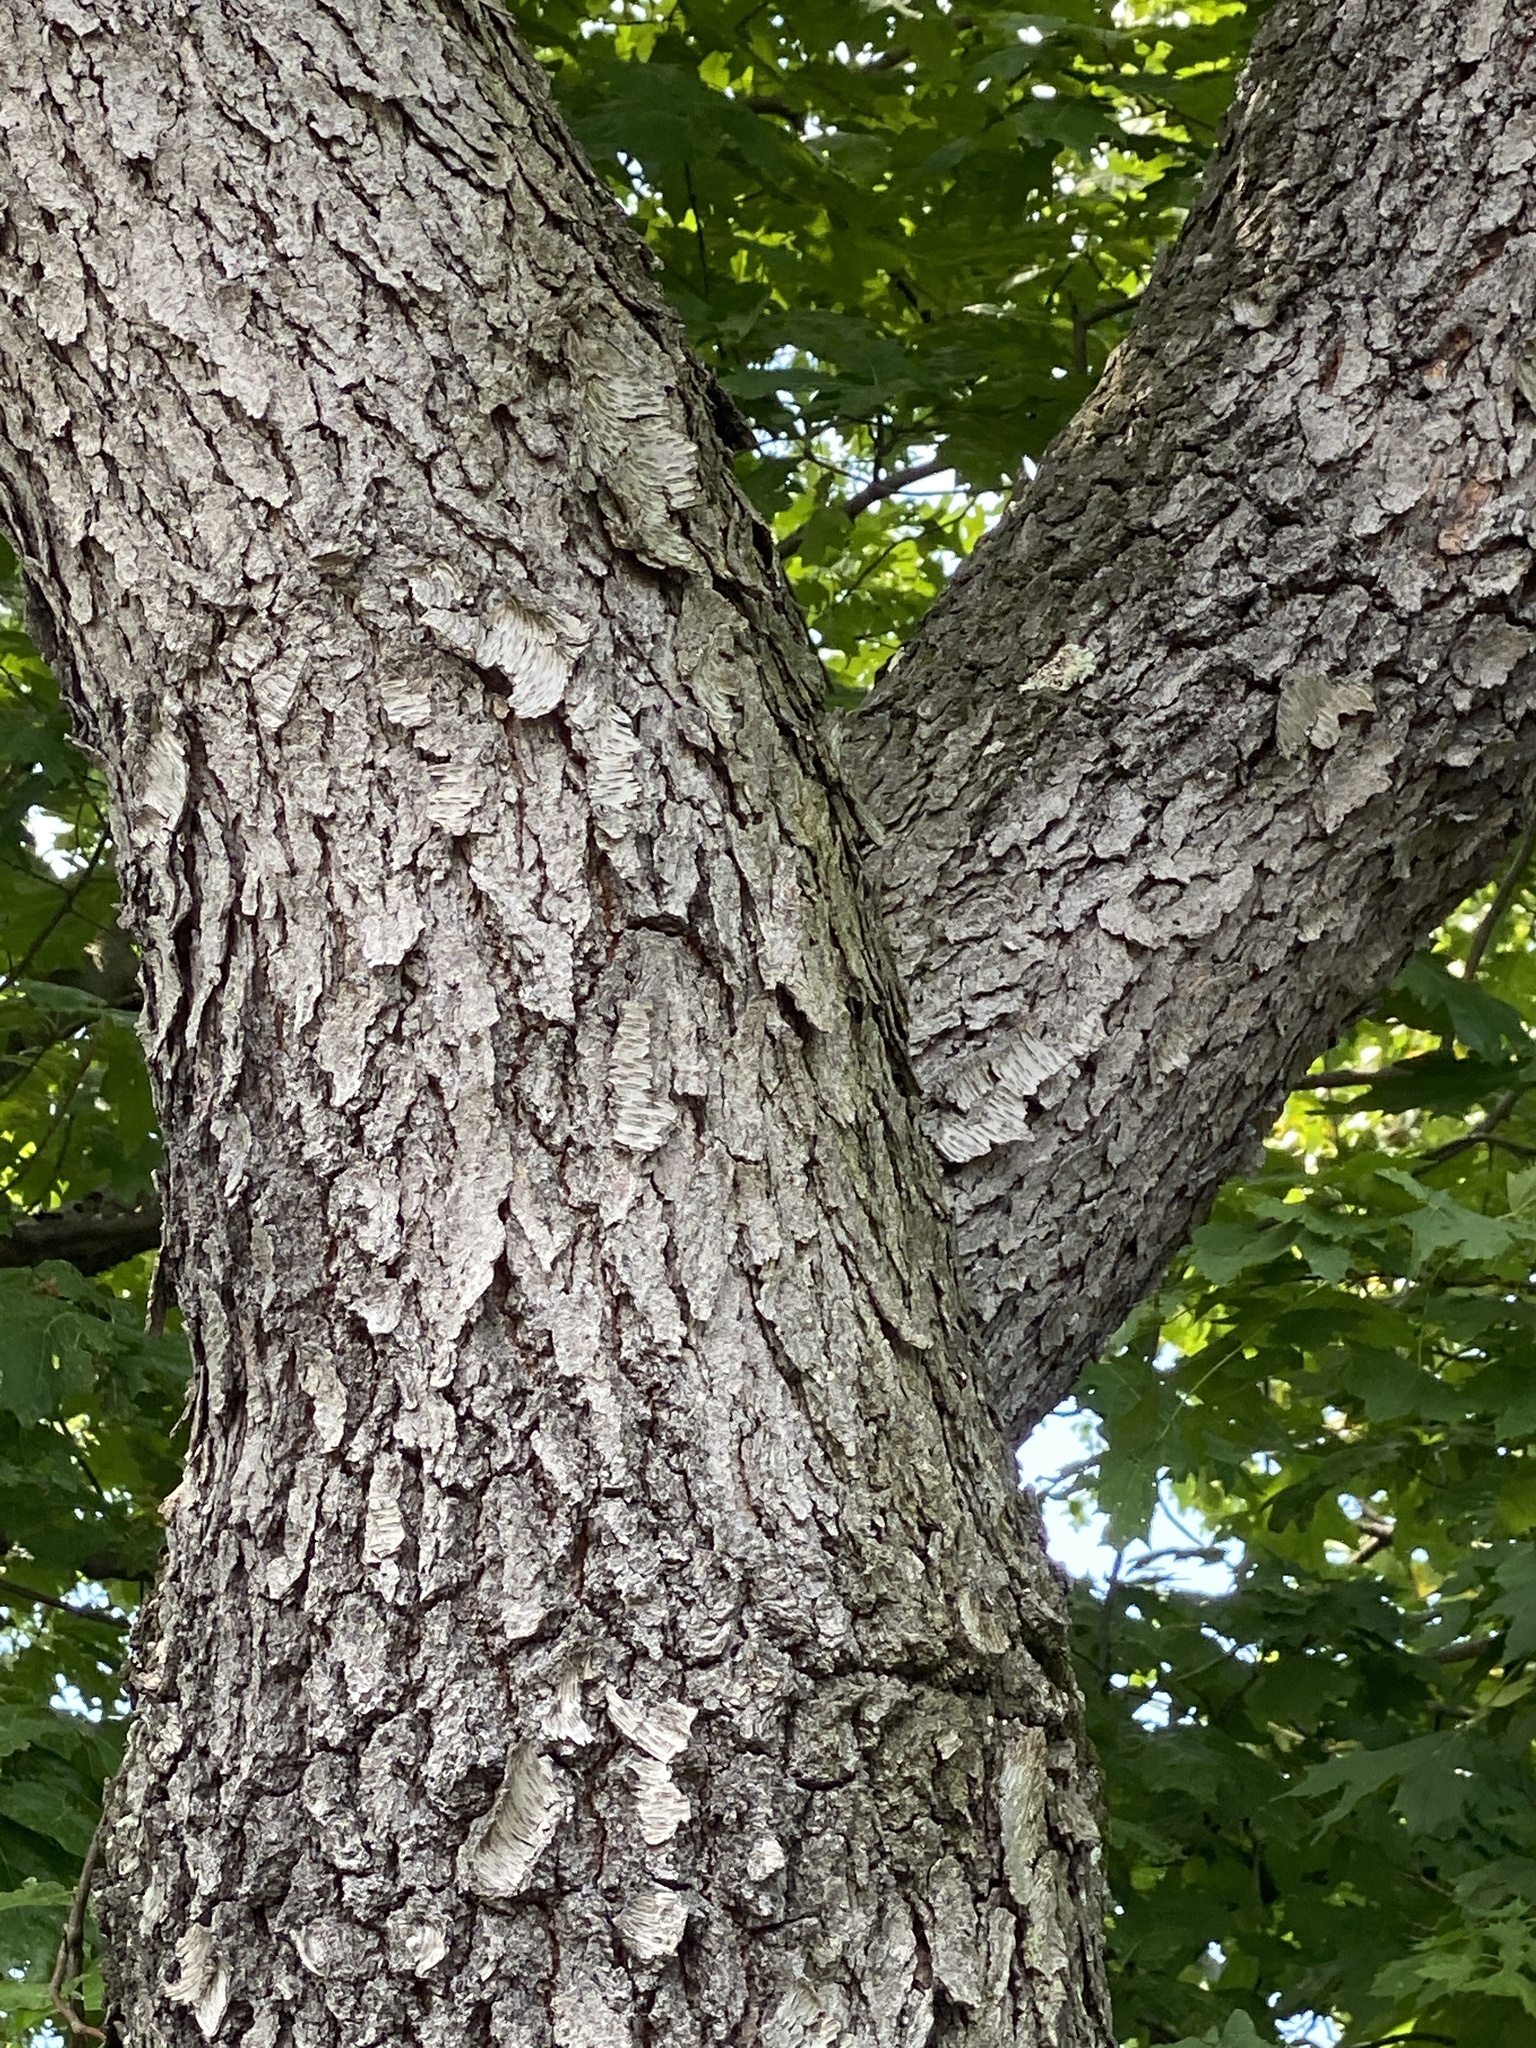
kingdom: Plantae
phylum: Tracheophyta
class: Magnoliopsida
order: Rosales
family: Rosaceae
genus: Prunus
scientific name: Prunus serotina
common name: Black cherry
